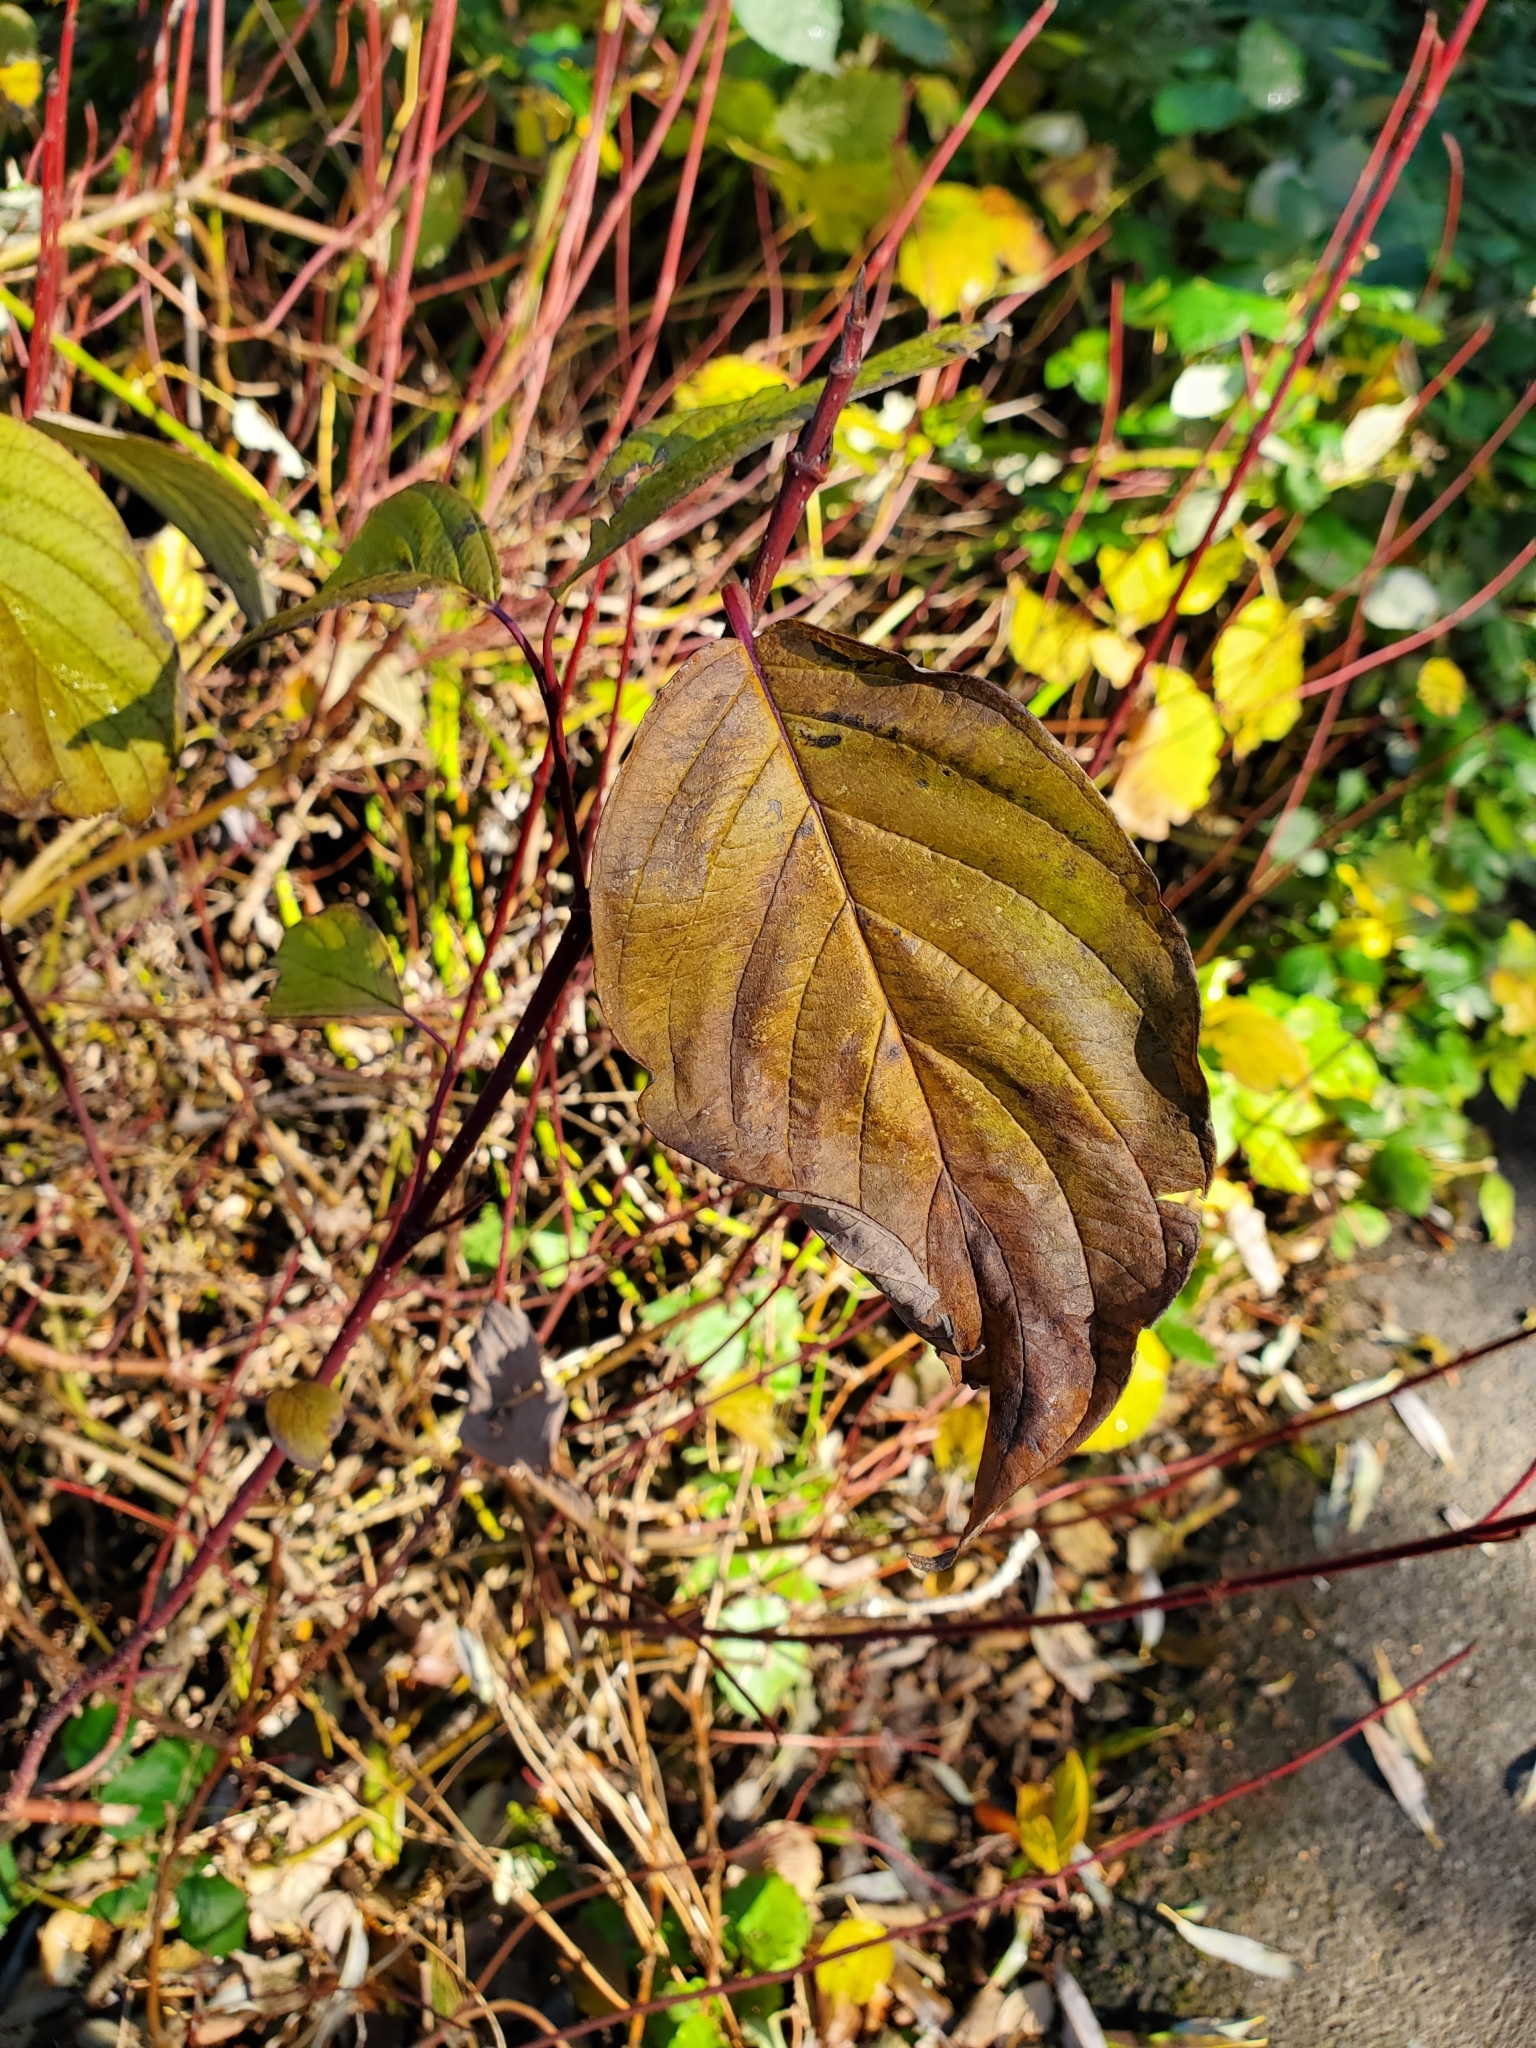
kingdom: Plantae
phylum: Tracheophyta
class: Magnoliopsida
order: Cornales
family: Cornaceae
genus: Cornus
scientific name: Cornus sericea
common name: Red-osier dogwood
